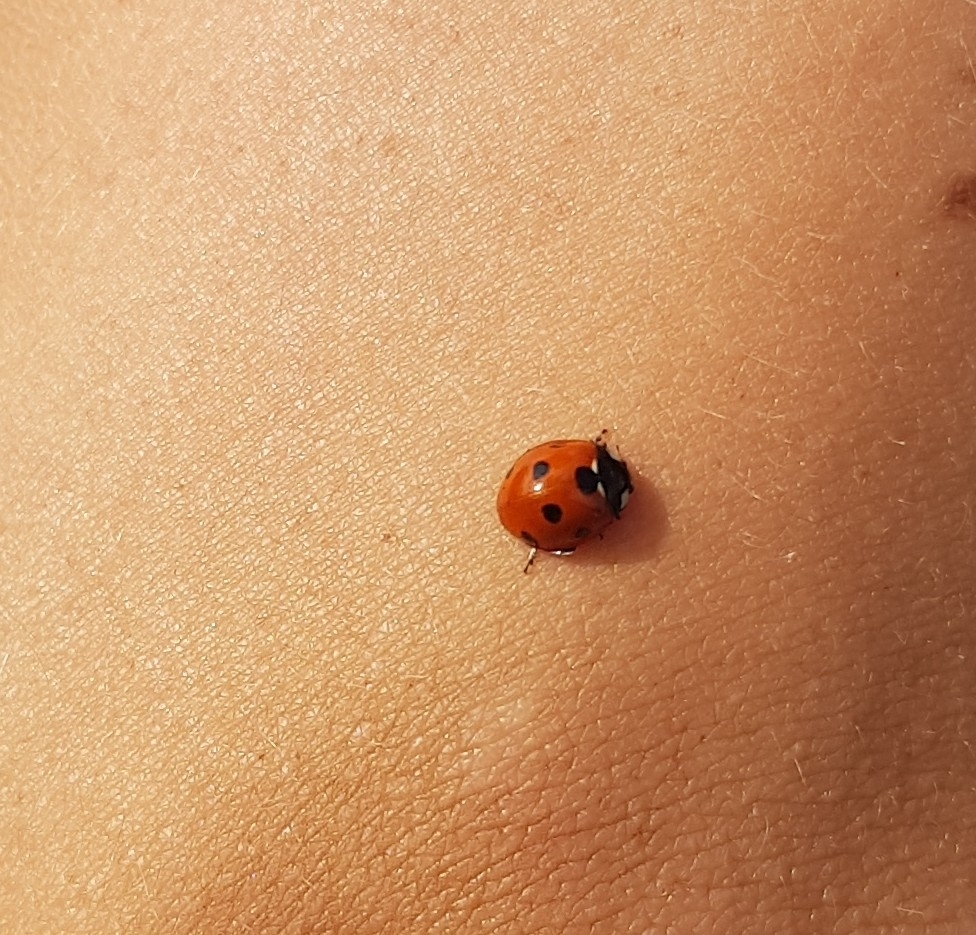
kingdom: Animalia
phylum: Arthropoda
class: Insecta
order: Coleoptera
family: Coccinellidae
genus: Coccinella
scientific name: Coccinella septempunctata
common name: Sevenspotted lady beetle
